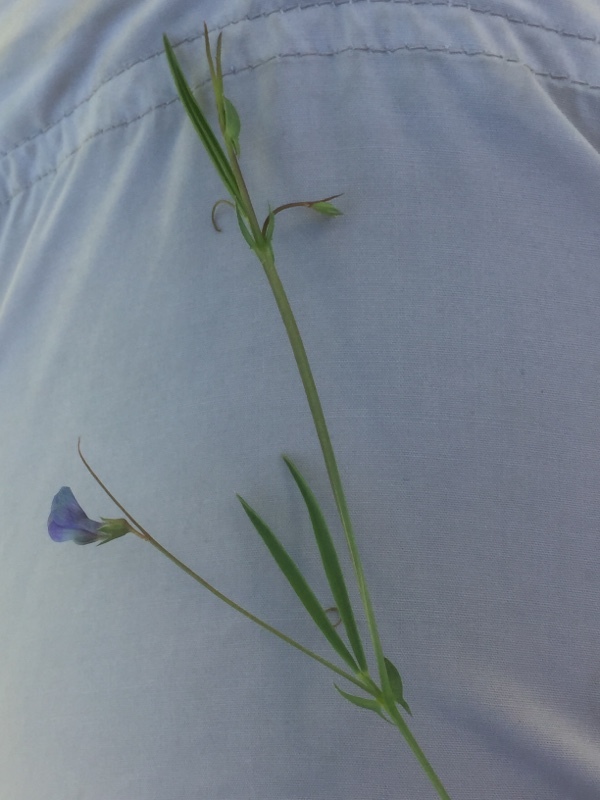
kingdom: Plantae
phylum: Tracheophyta
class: Magnoliopsida
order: Fabales
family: Fabaceae
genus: Lathyrus
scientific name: Lathyrus angulatus
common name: Angular pea
